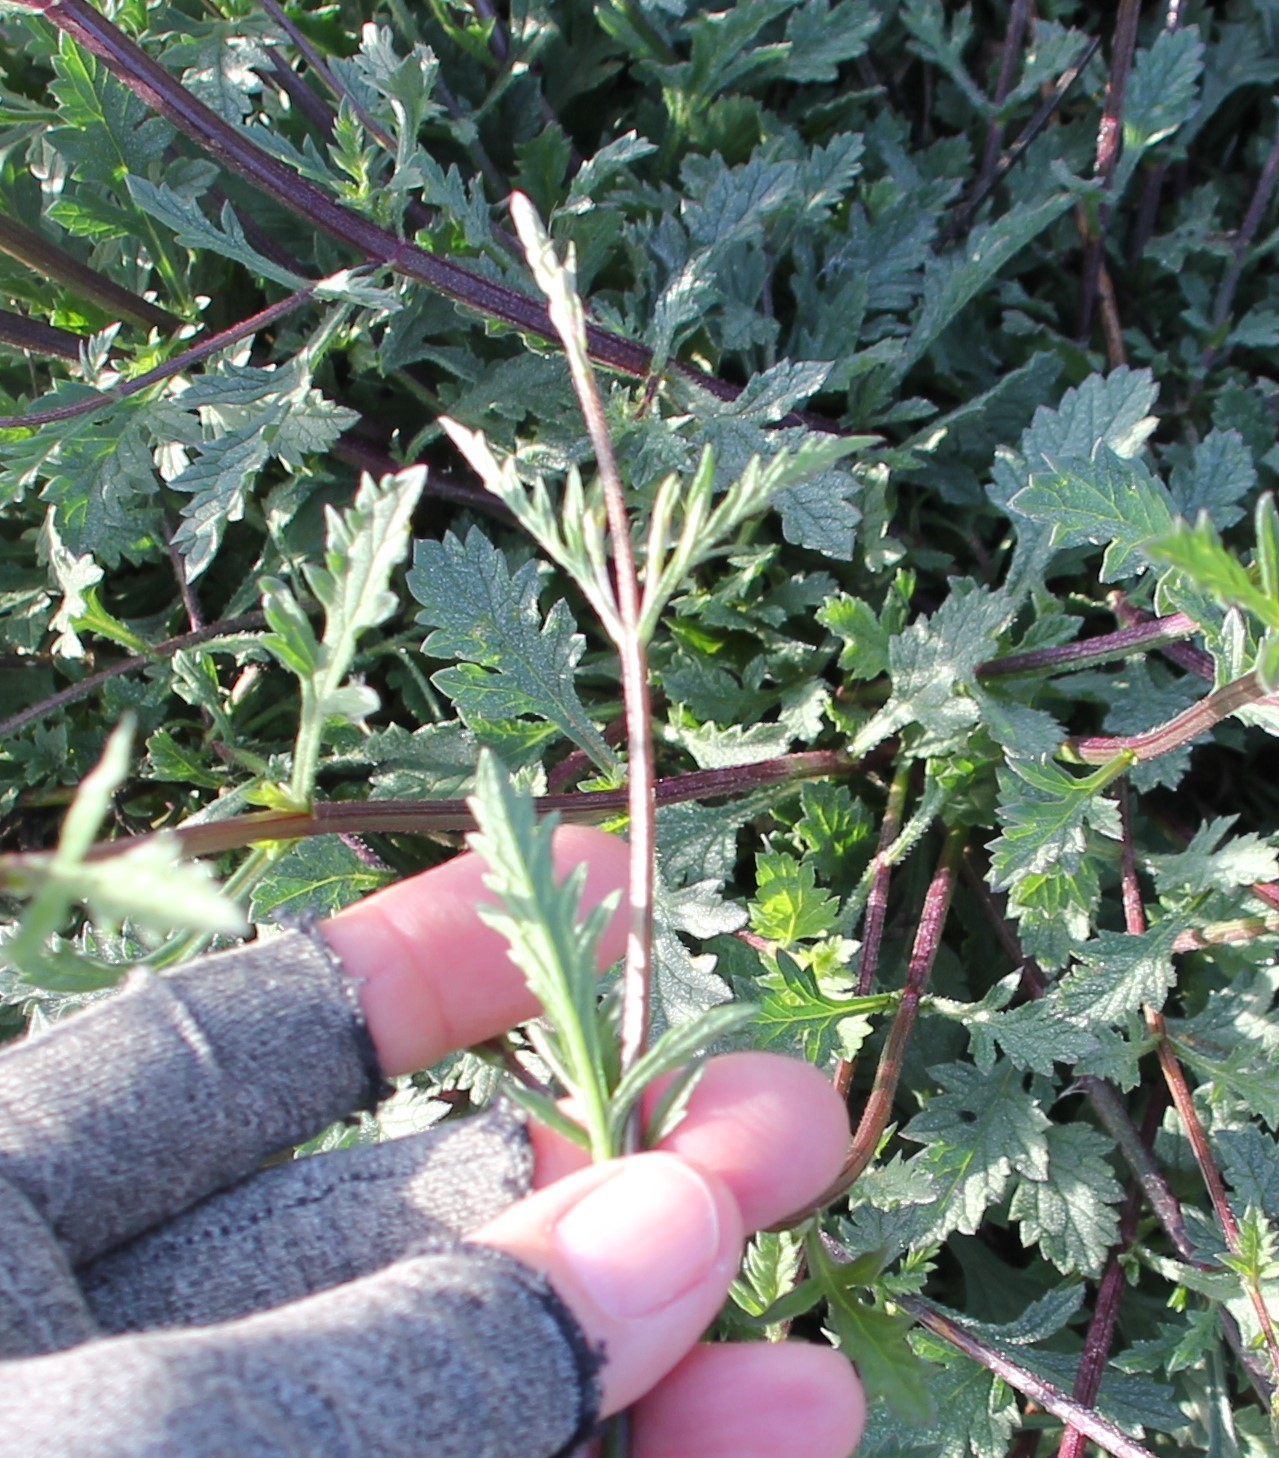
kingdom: Plantae
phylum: Tracheophyta
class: Magnoliopsida
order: Lamiales
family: Verbenaceae
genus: Verbena
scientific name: Verbena menthifolia
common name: Mint-leaf vervain
